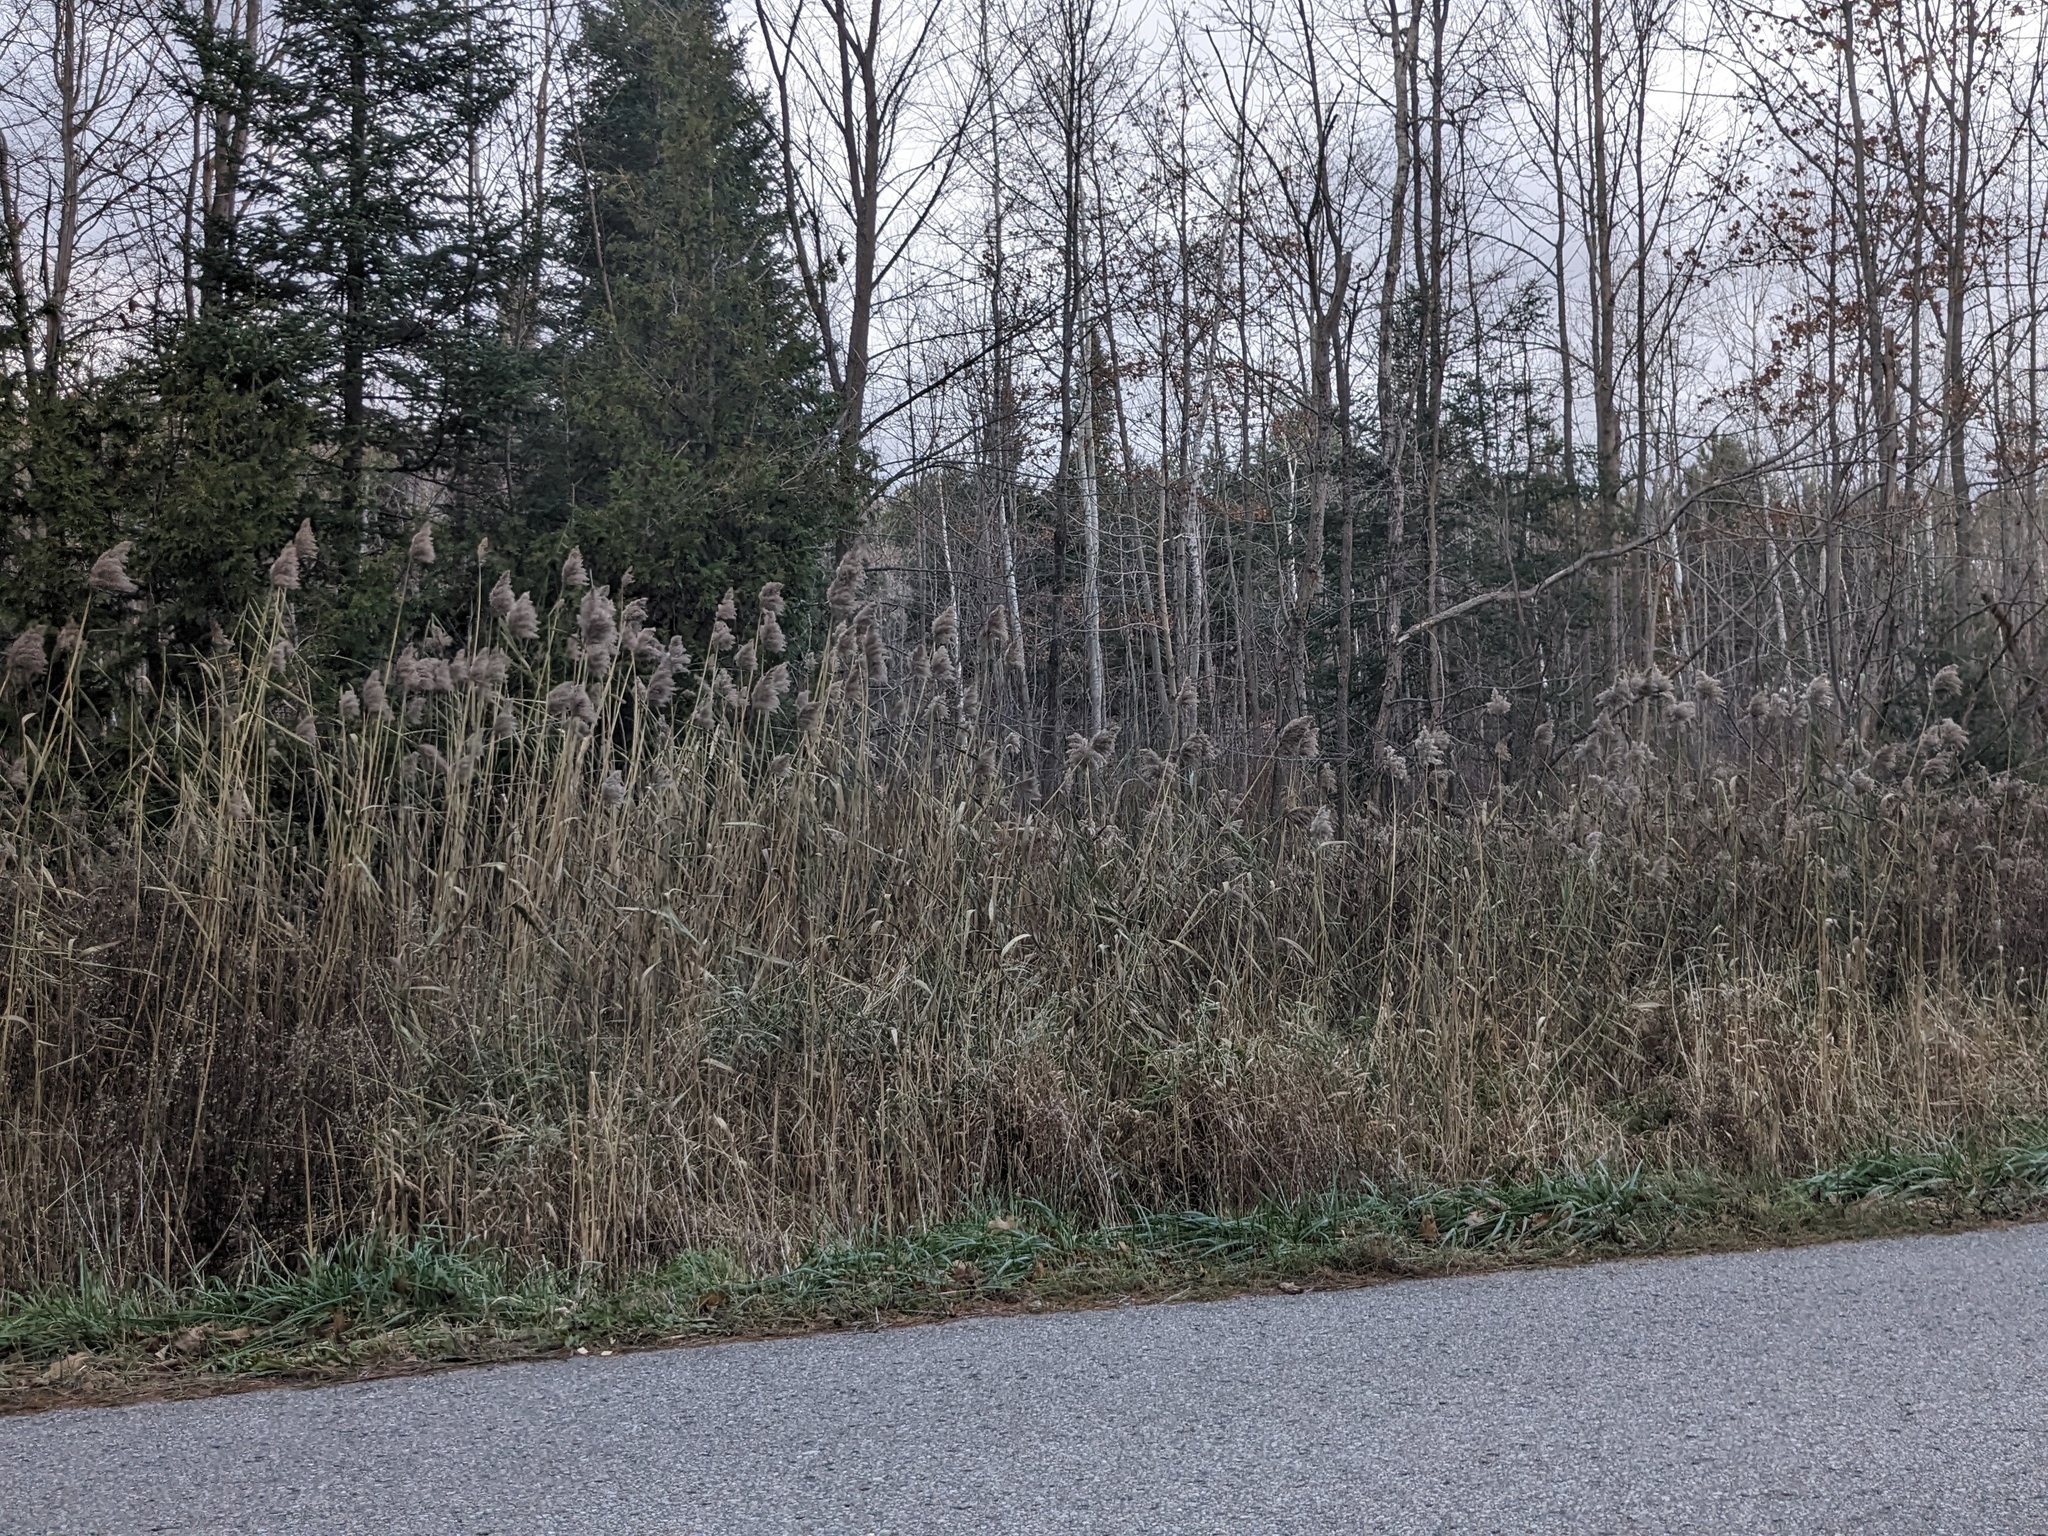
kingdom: Plantae
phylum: Tracheophyta
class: Liliopsida
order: Poales
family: Poaceae
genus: Phragmites
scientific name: Phragmites australis
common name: Common reed
